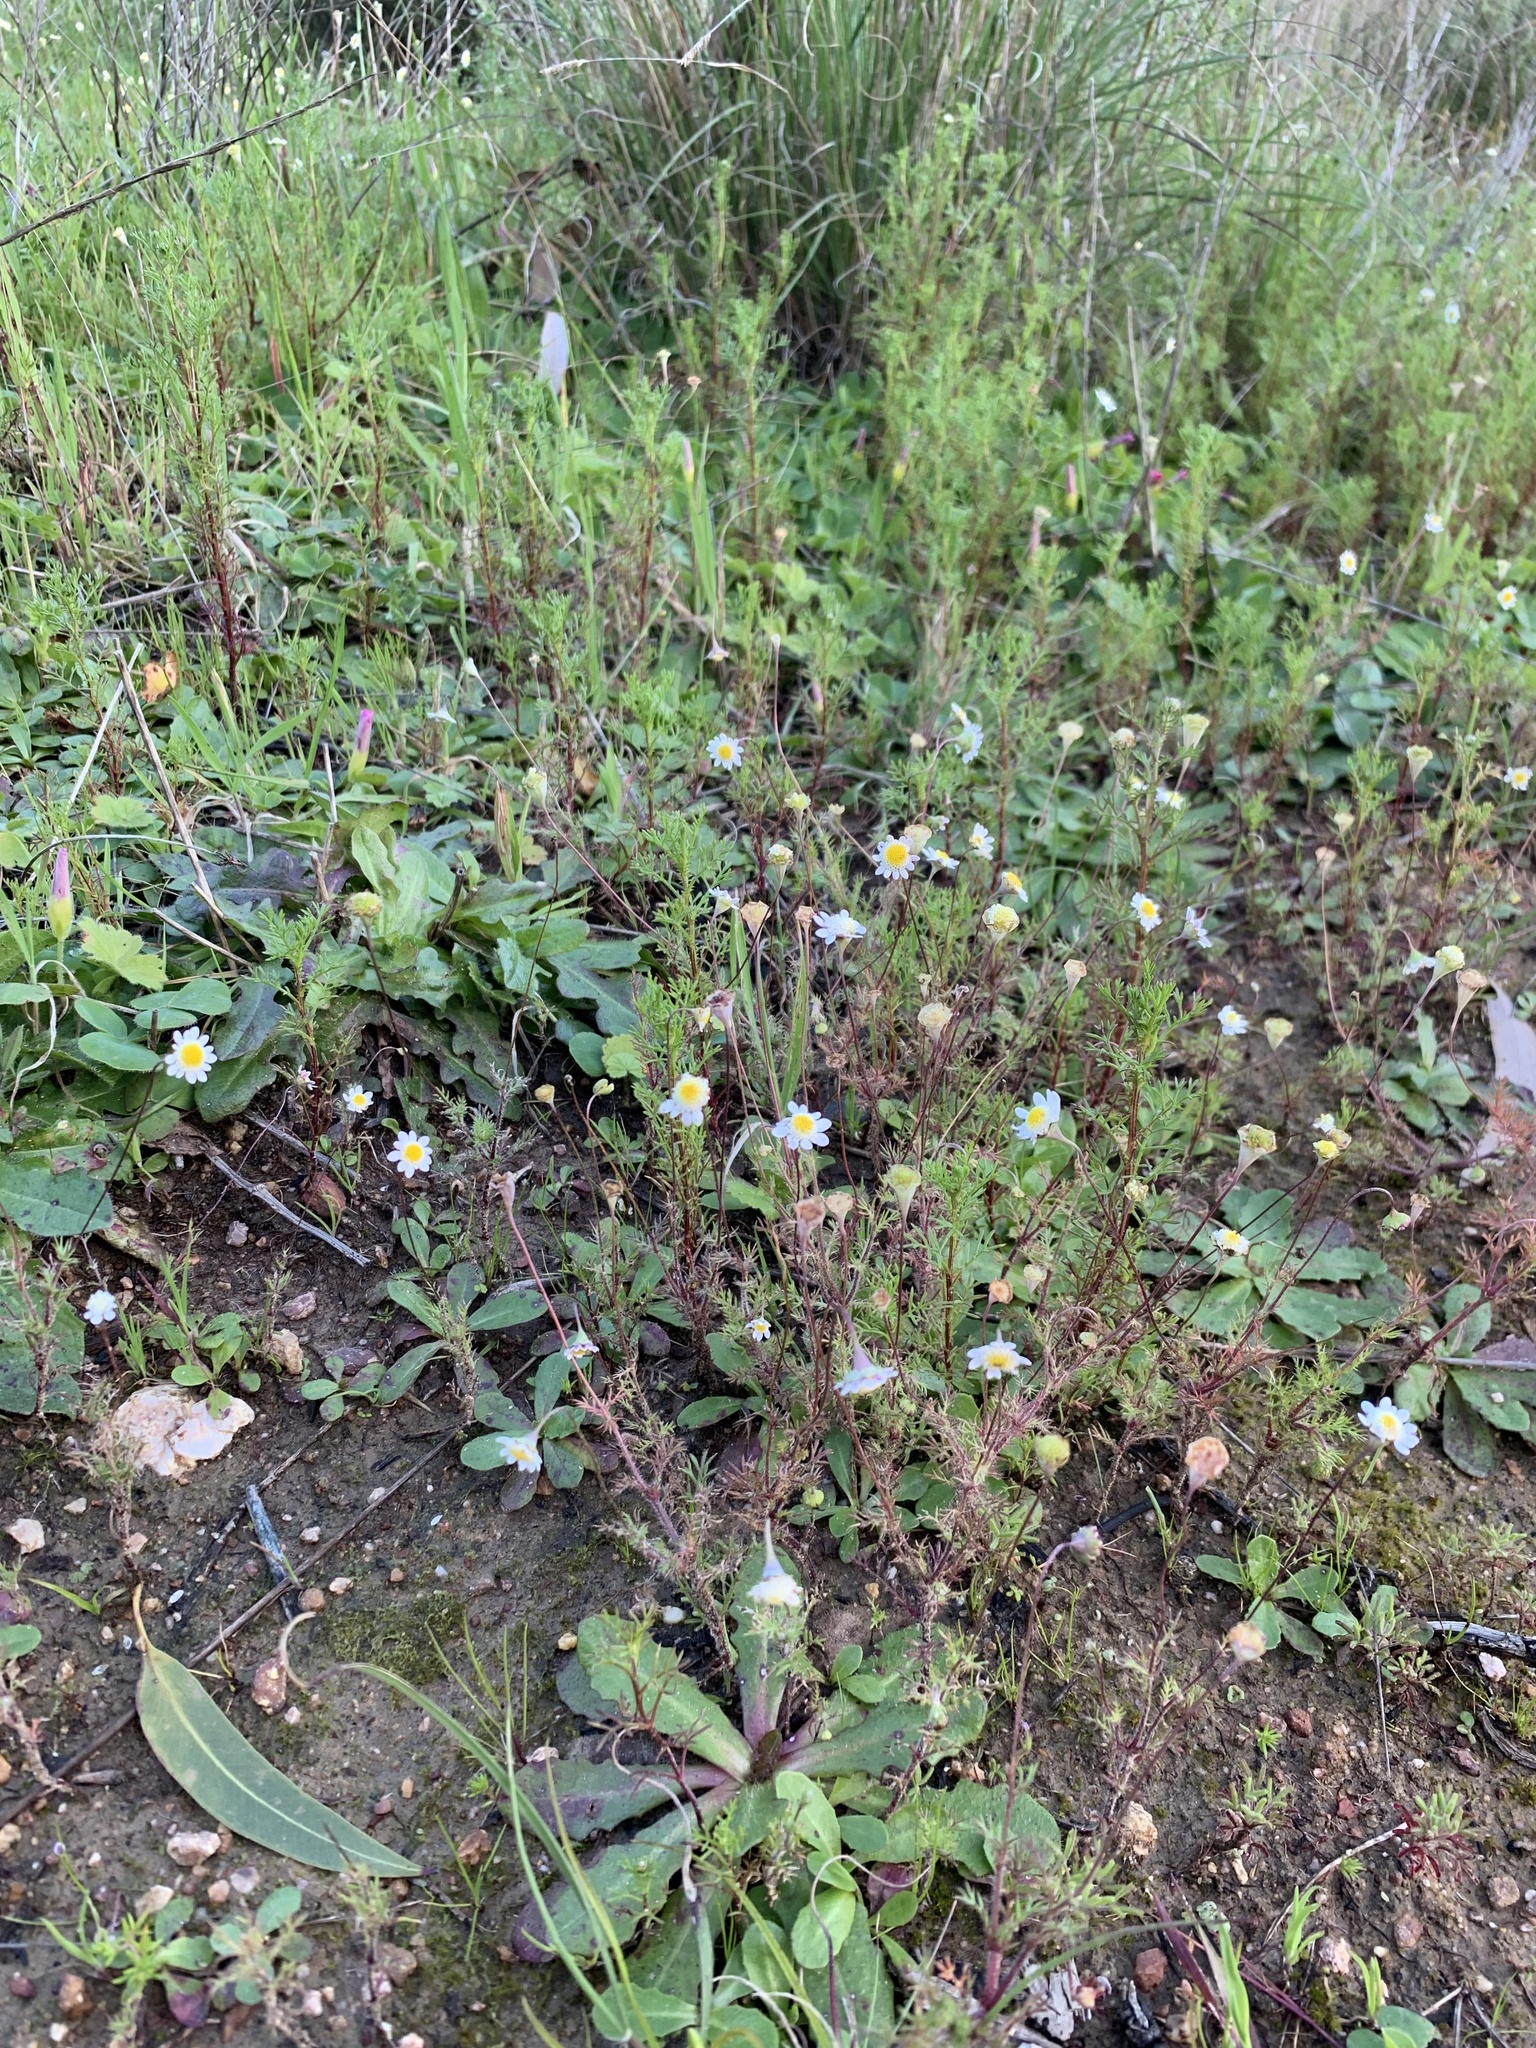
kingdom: Plantae
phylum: Tracheophyta
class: Magnoliopsida
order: Asterales
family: Asteraceae
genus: Cotula
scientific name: Cotula turbinata
